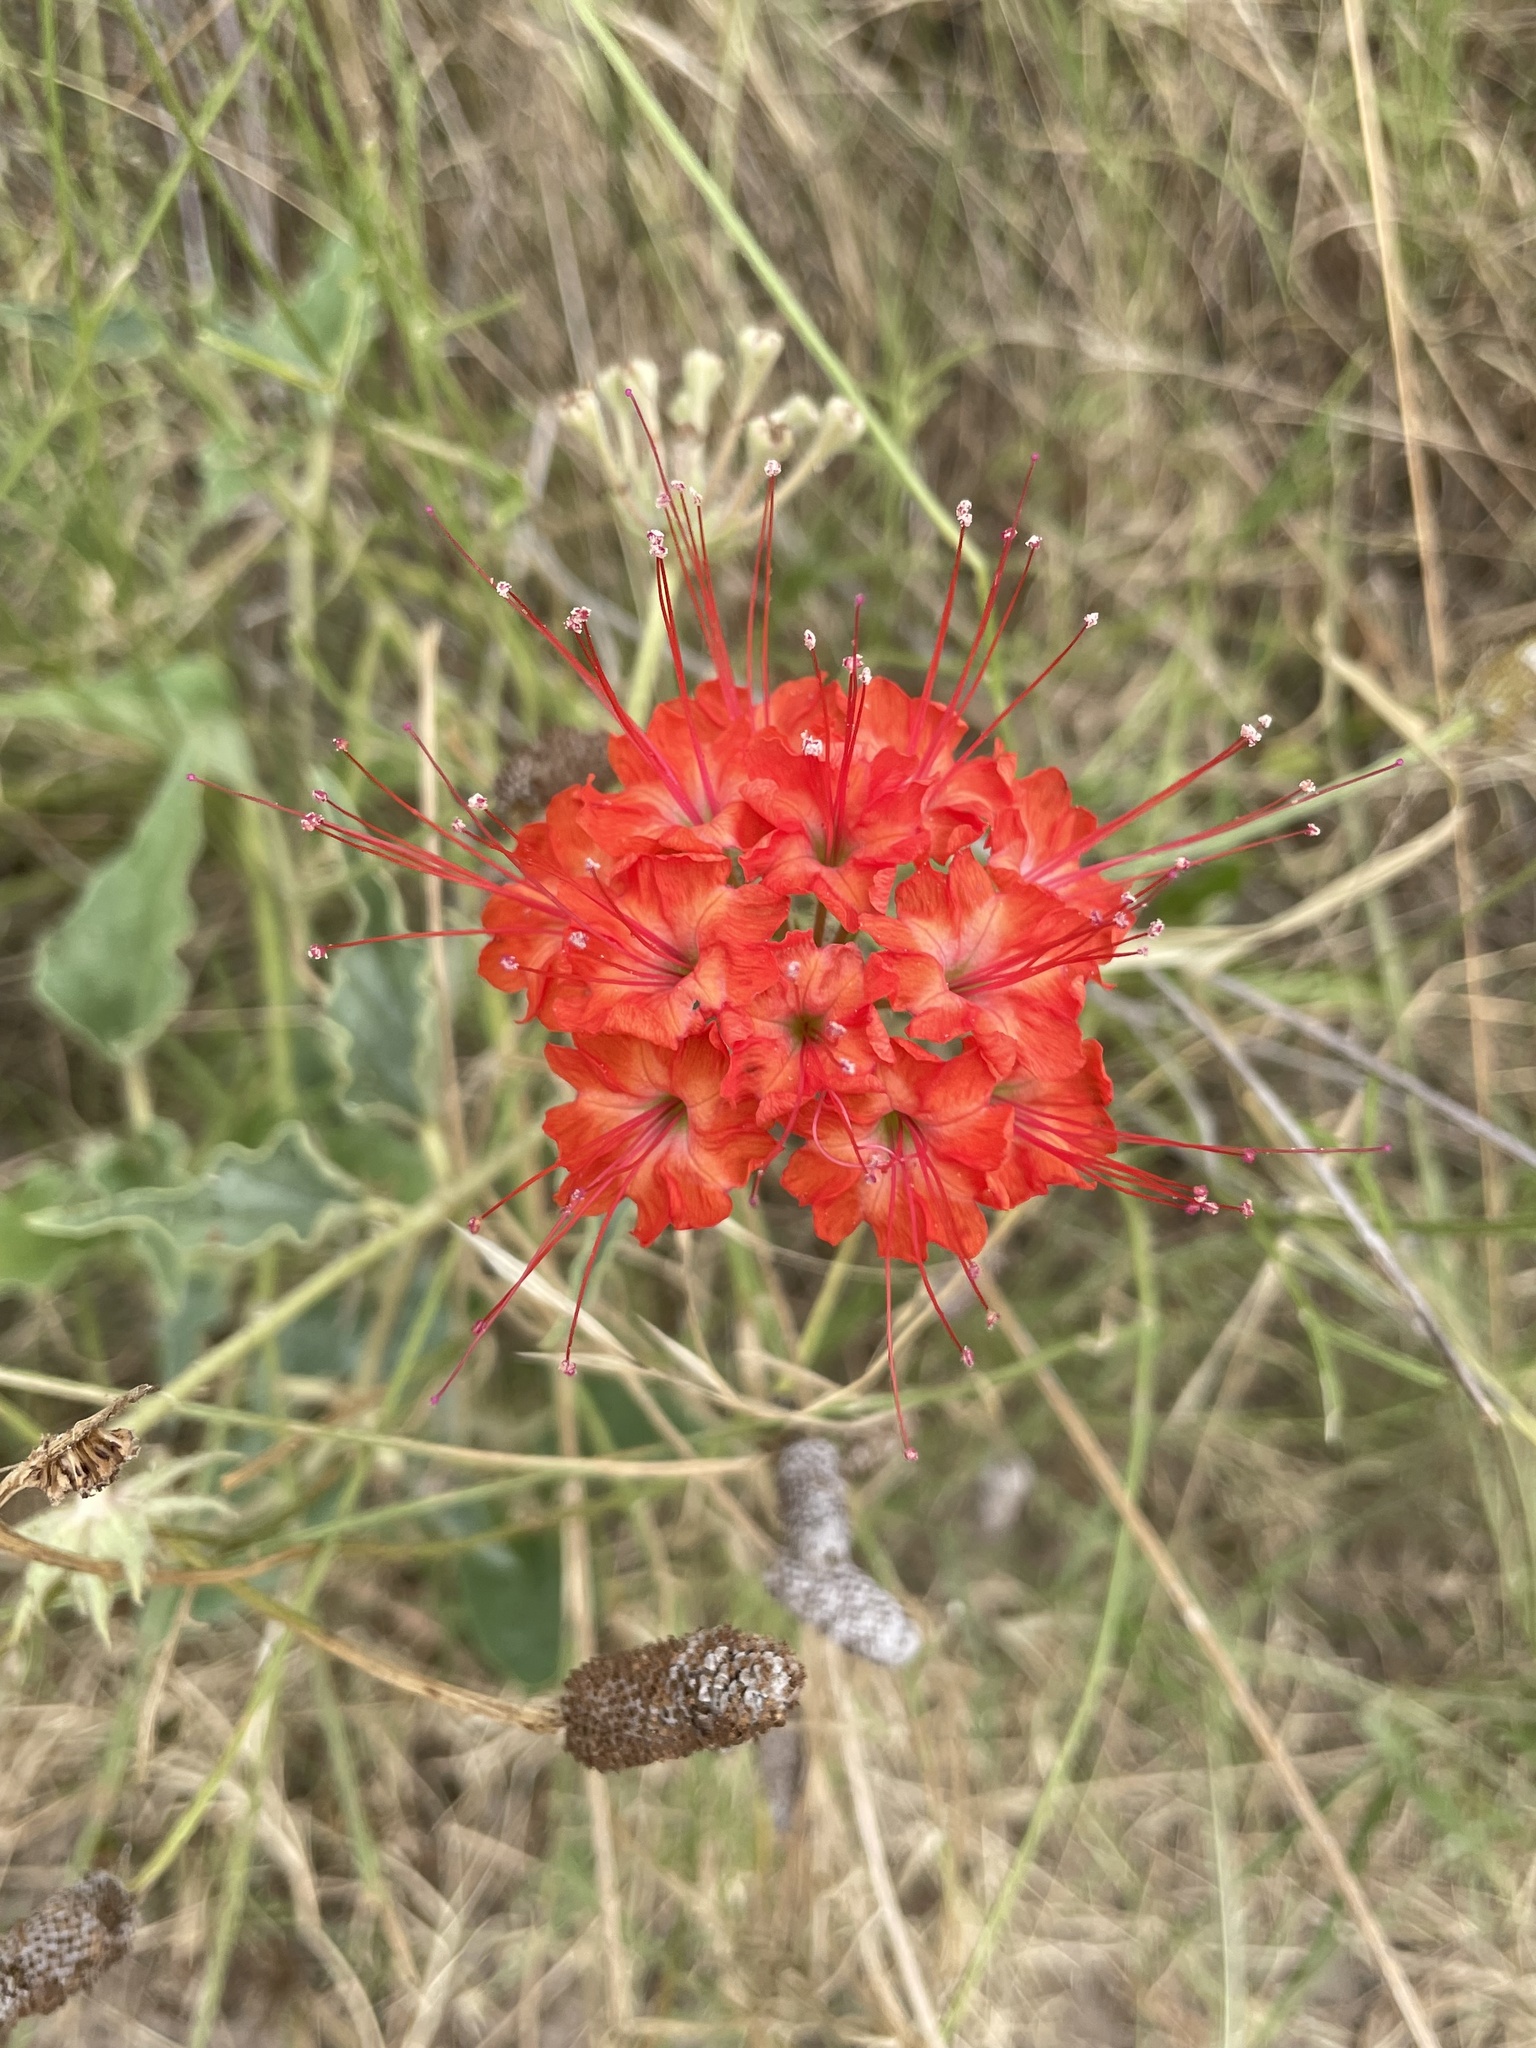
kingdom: Plantae
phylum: Tracheophyta
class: Magnoliopsida
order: Caryophyllales
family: Nyctaginaceae
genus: Nyctaginia
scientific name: Nyctaginia capitata
